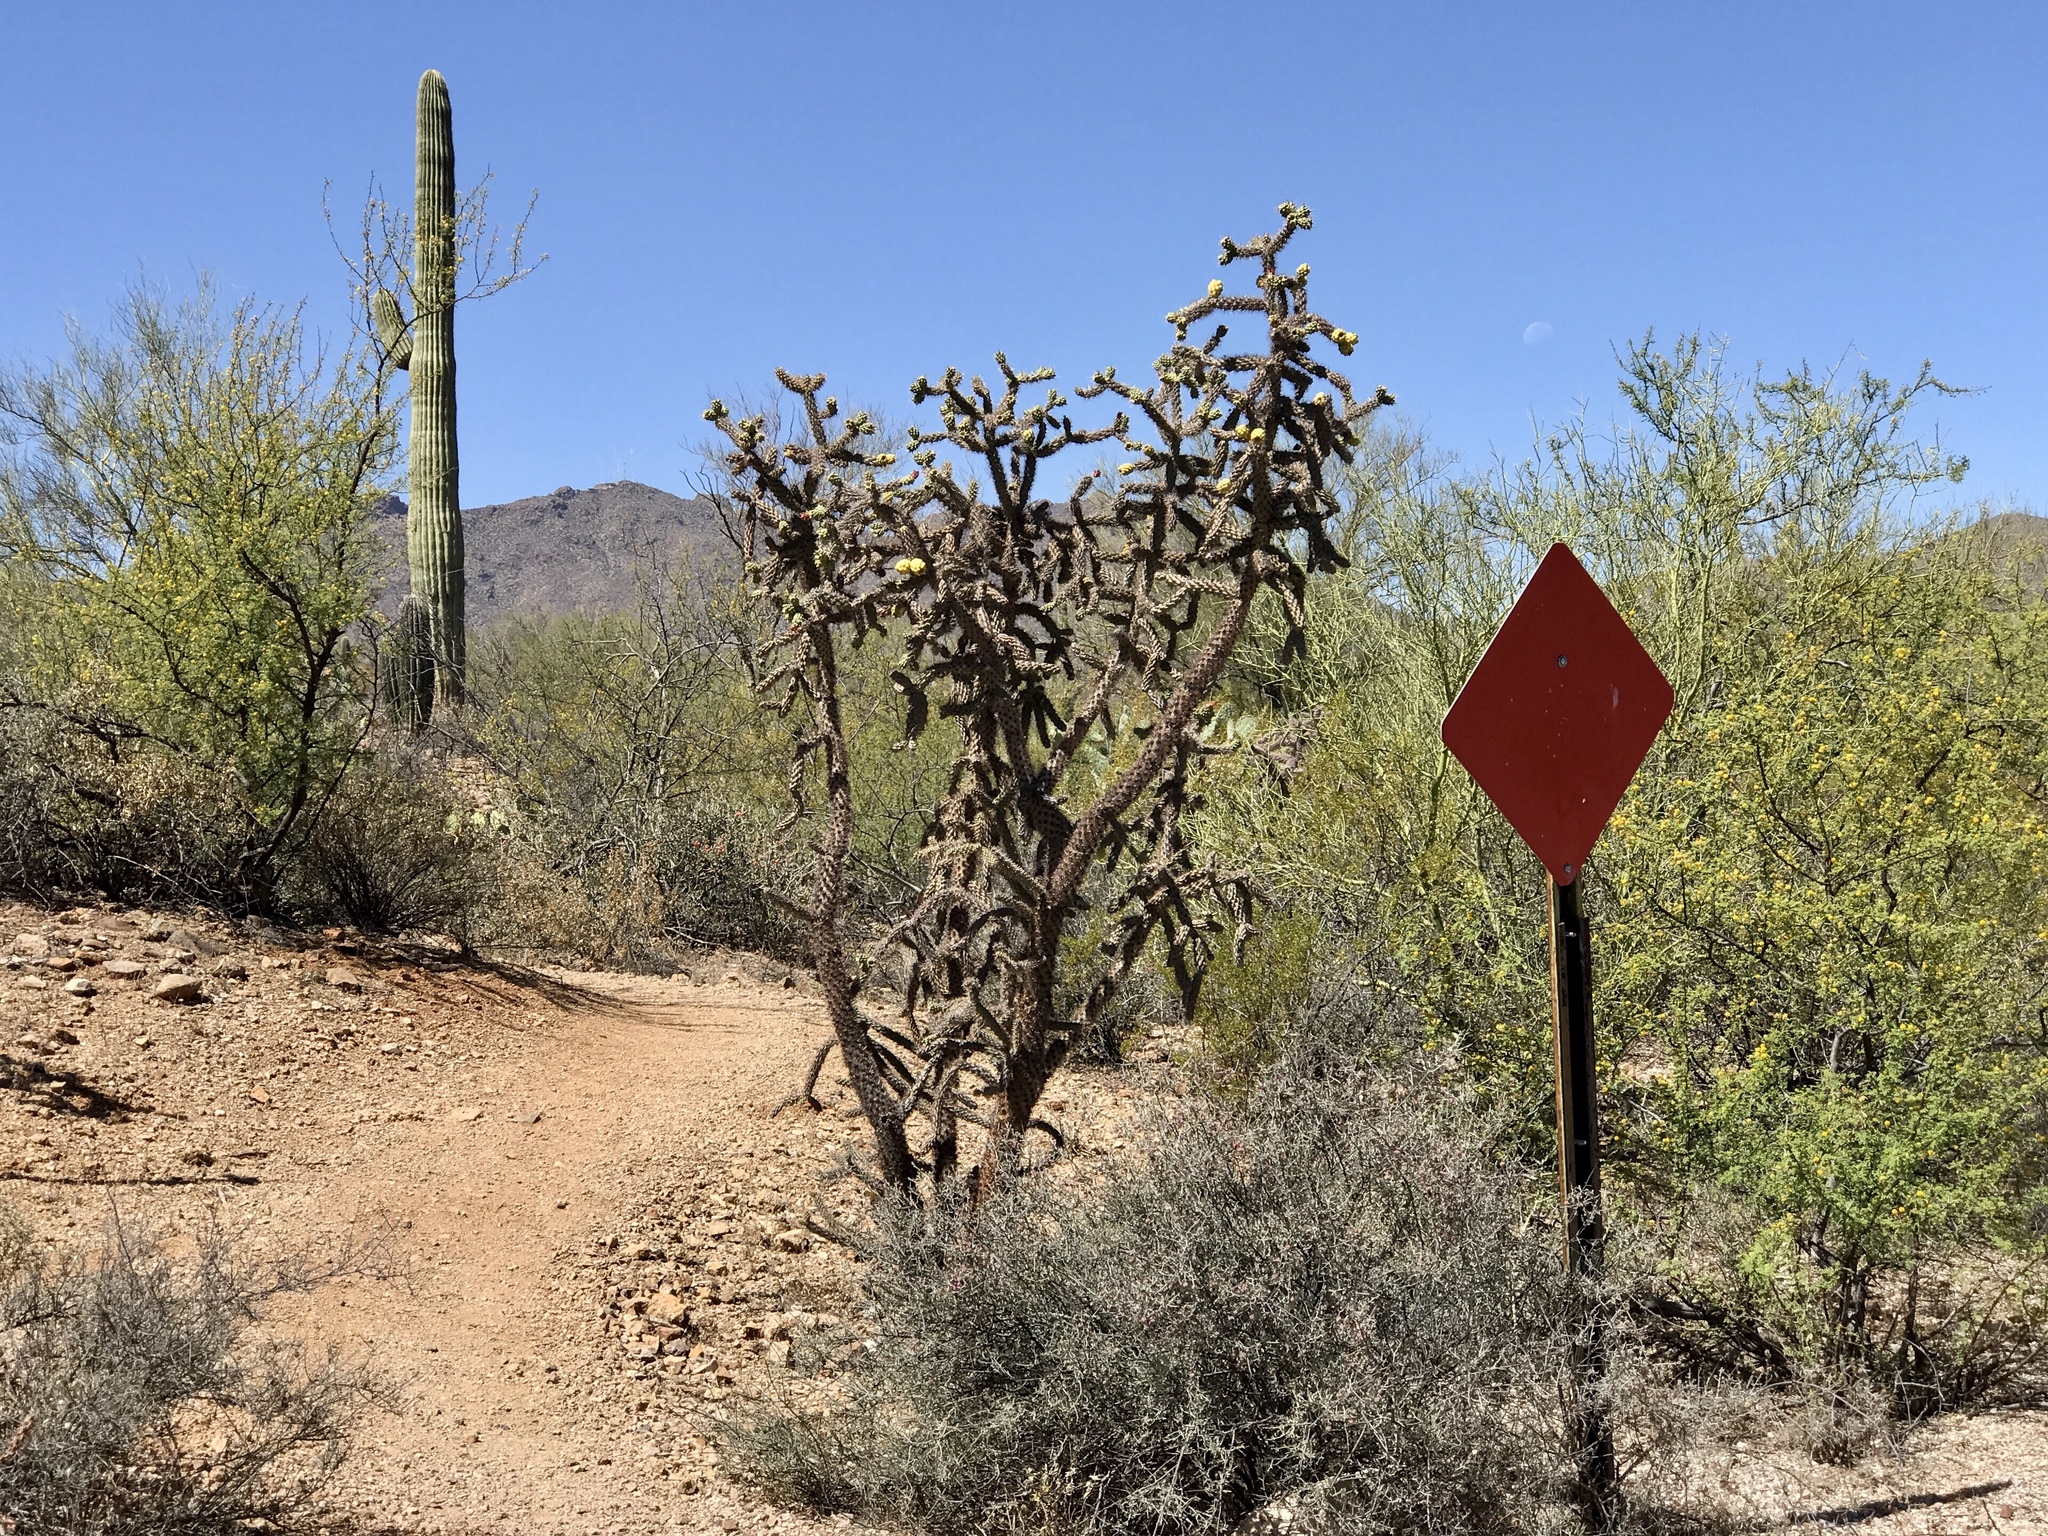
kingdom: Plantae
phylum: Tracheophyta
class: Magnoliopsida
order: Caryophyllales
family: Cactaceae
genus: Cylindropuntia
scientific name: Cylindropuntia imbricata
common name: Candelabrum cactus
